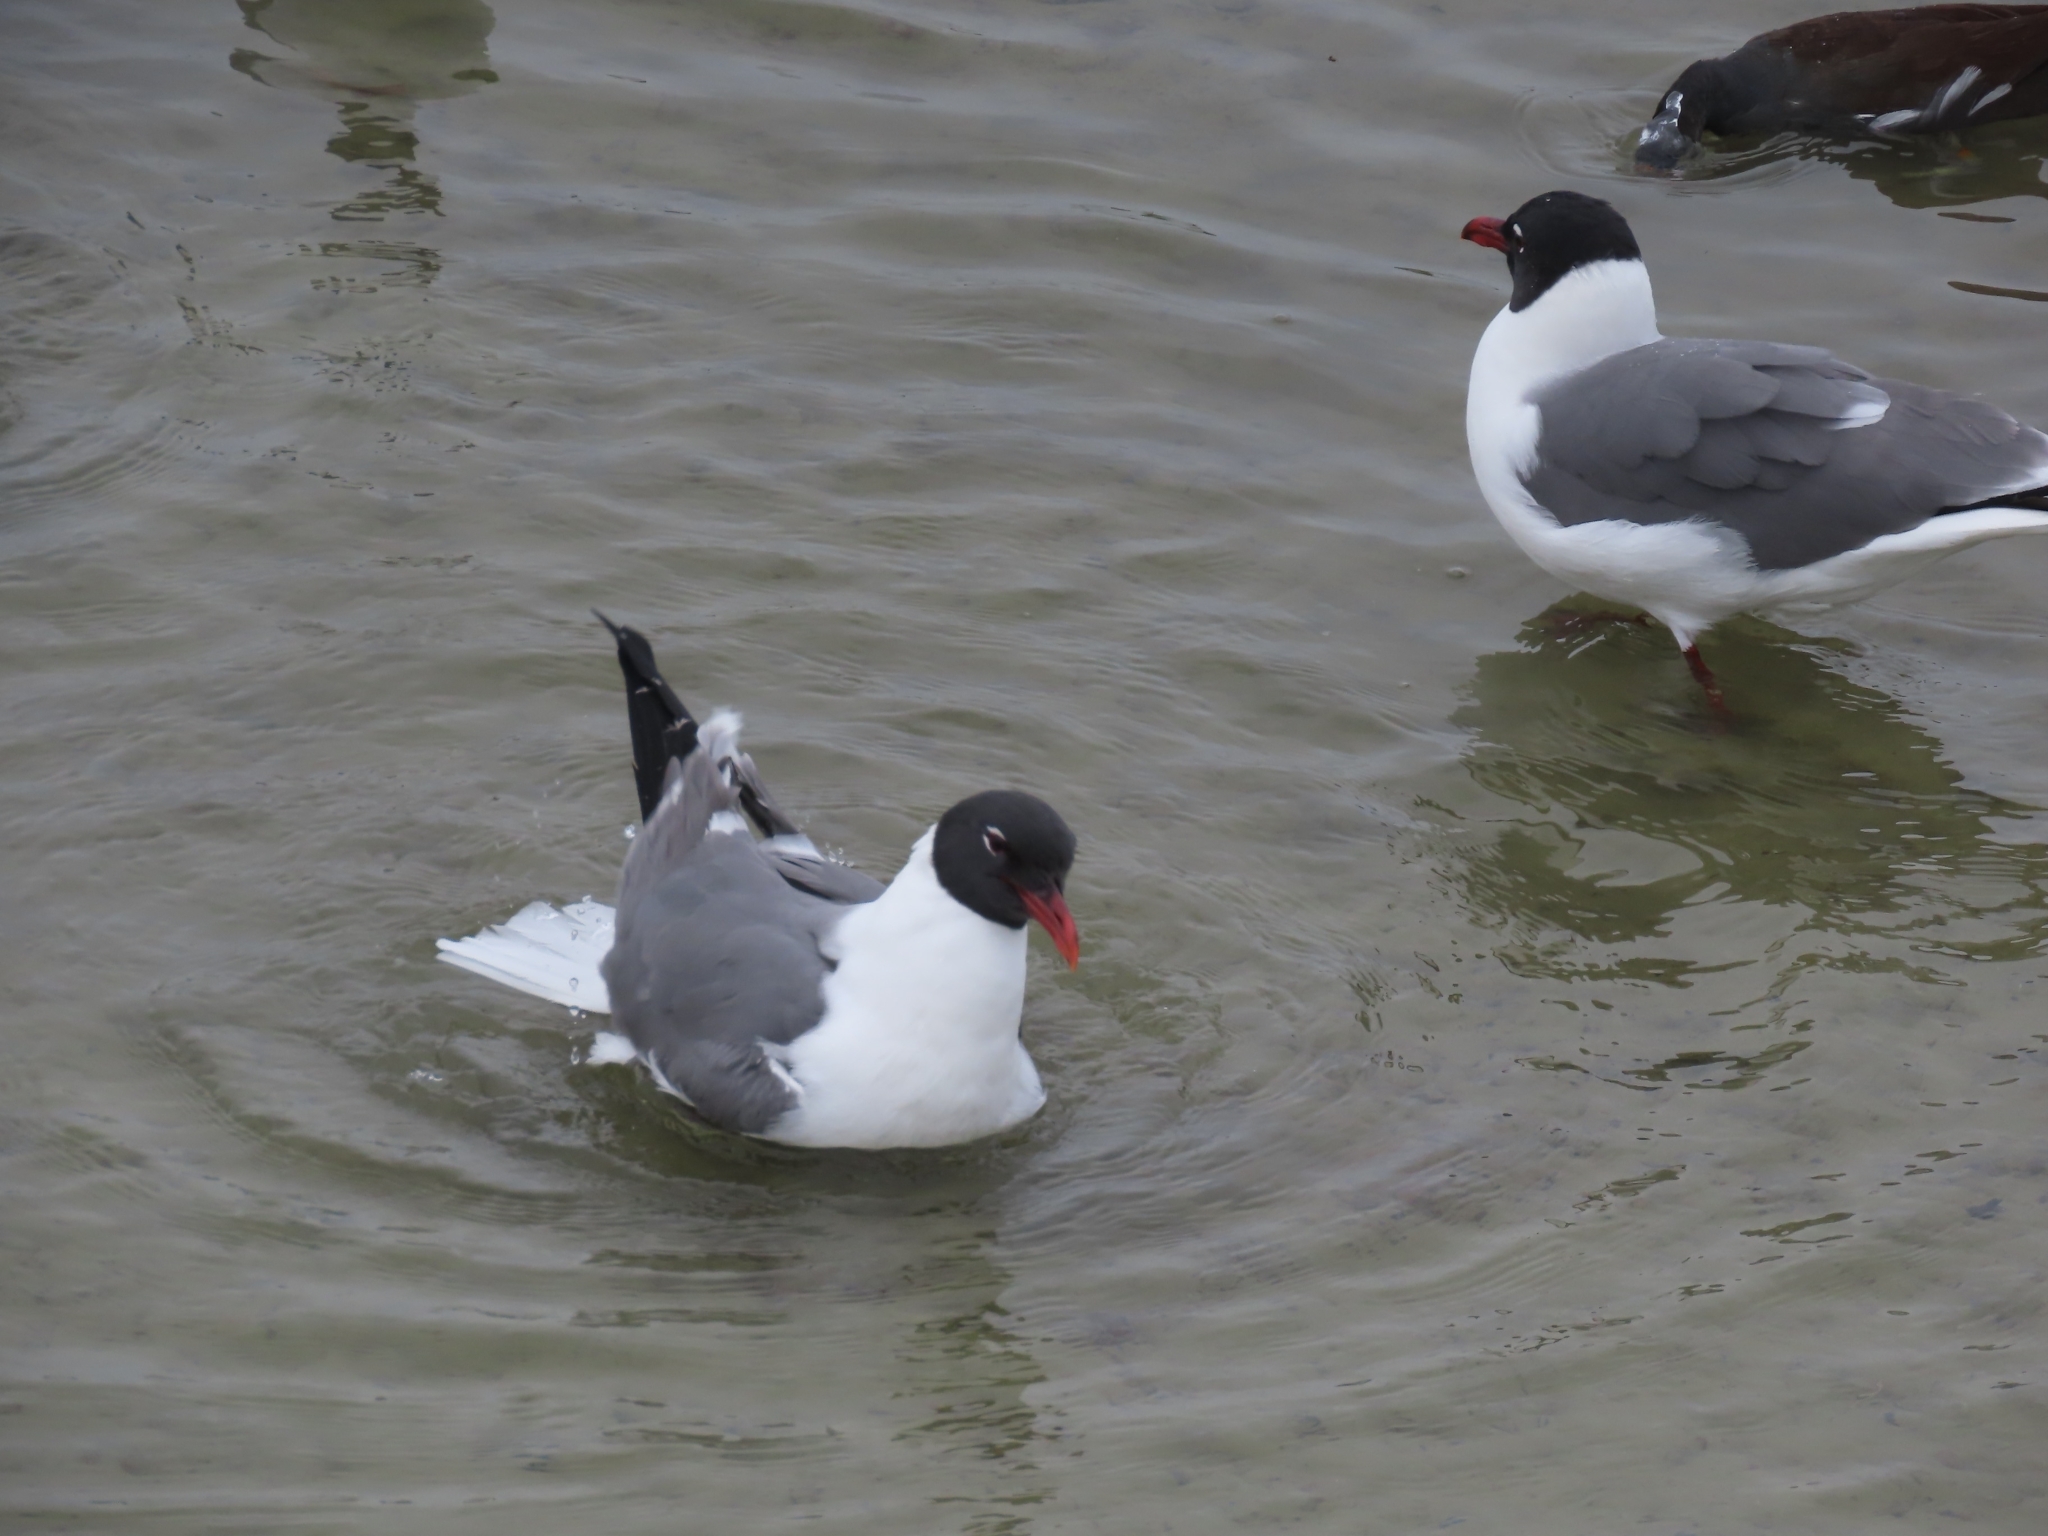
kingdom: Animalia
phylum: Chordata
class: Aves
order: Charadriiformes
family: Laridae
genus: Leucophaeus
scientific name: Leucophaeus atricilla
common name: Laughing gull
